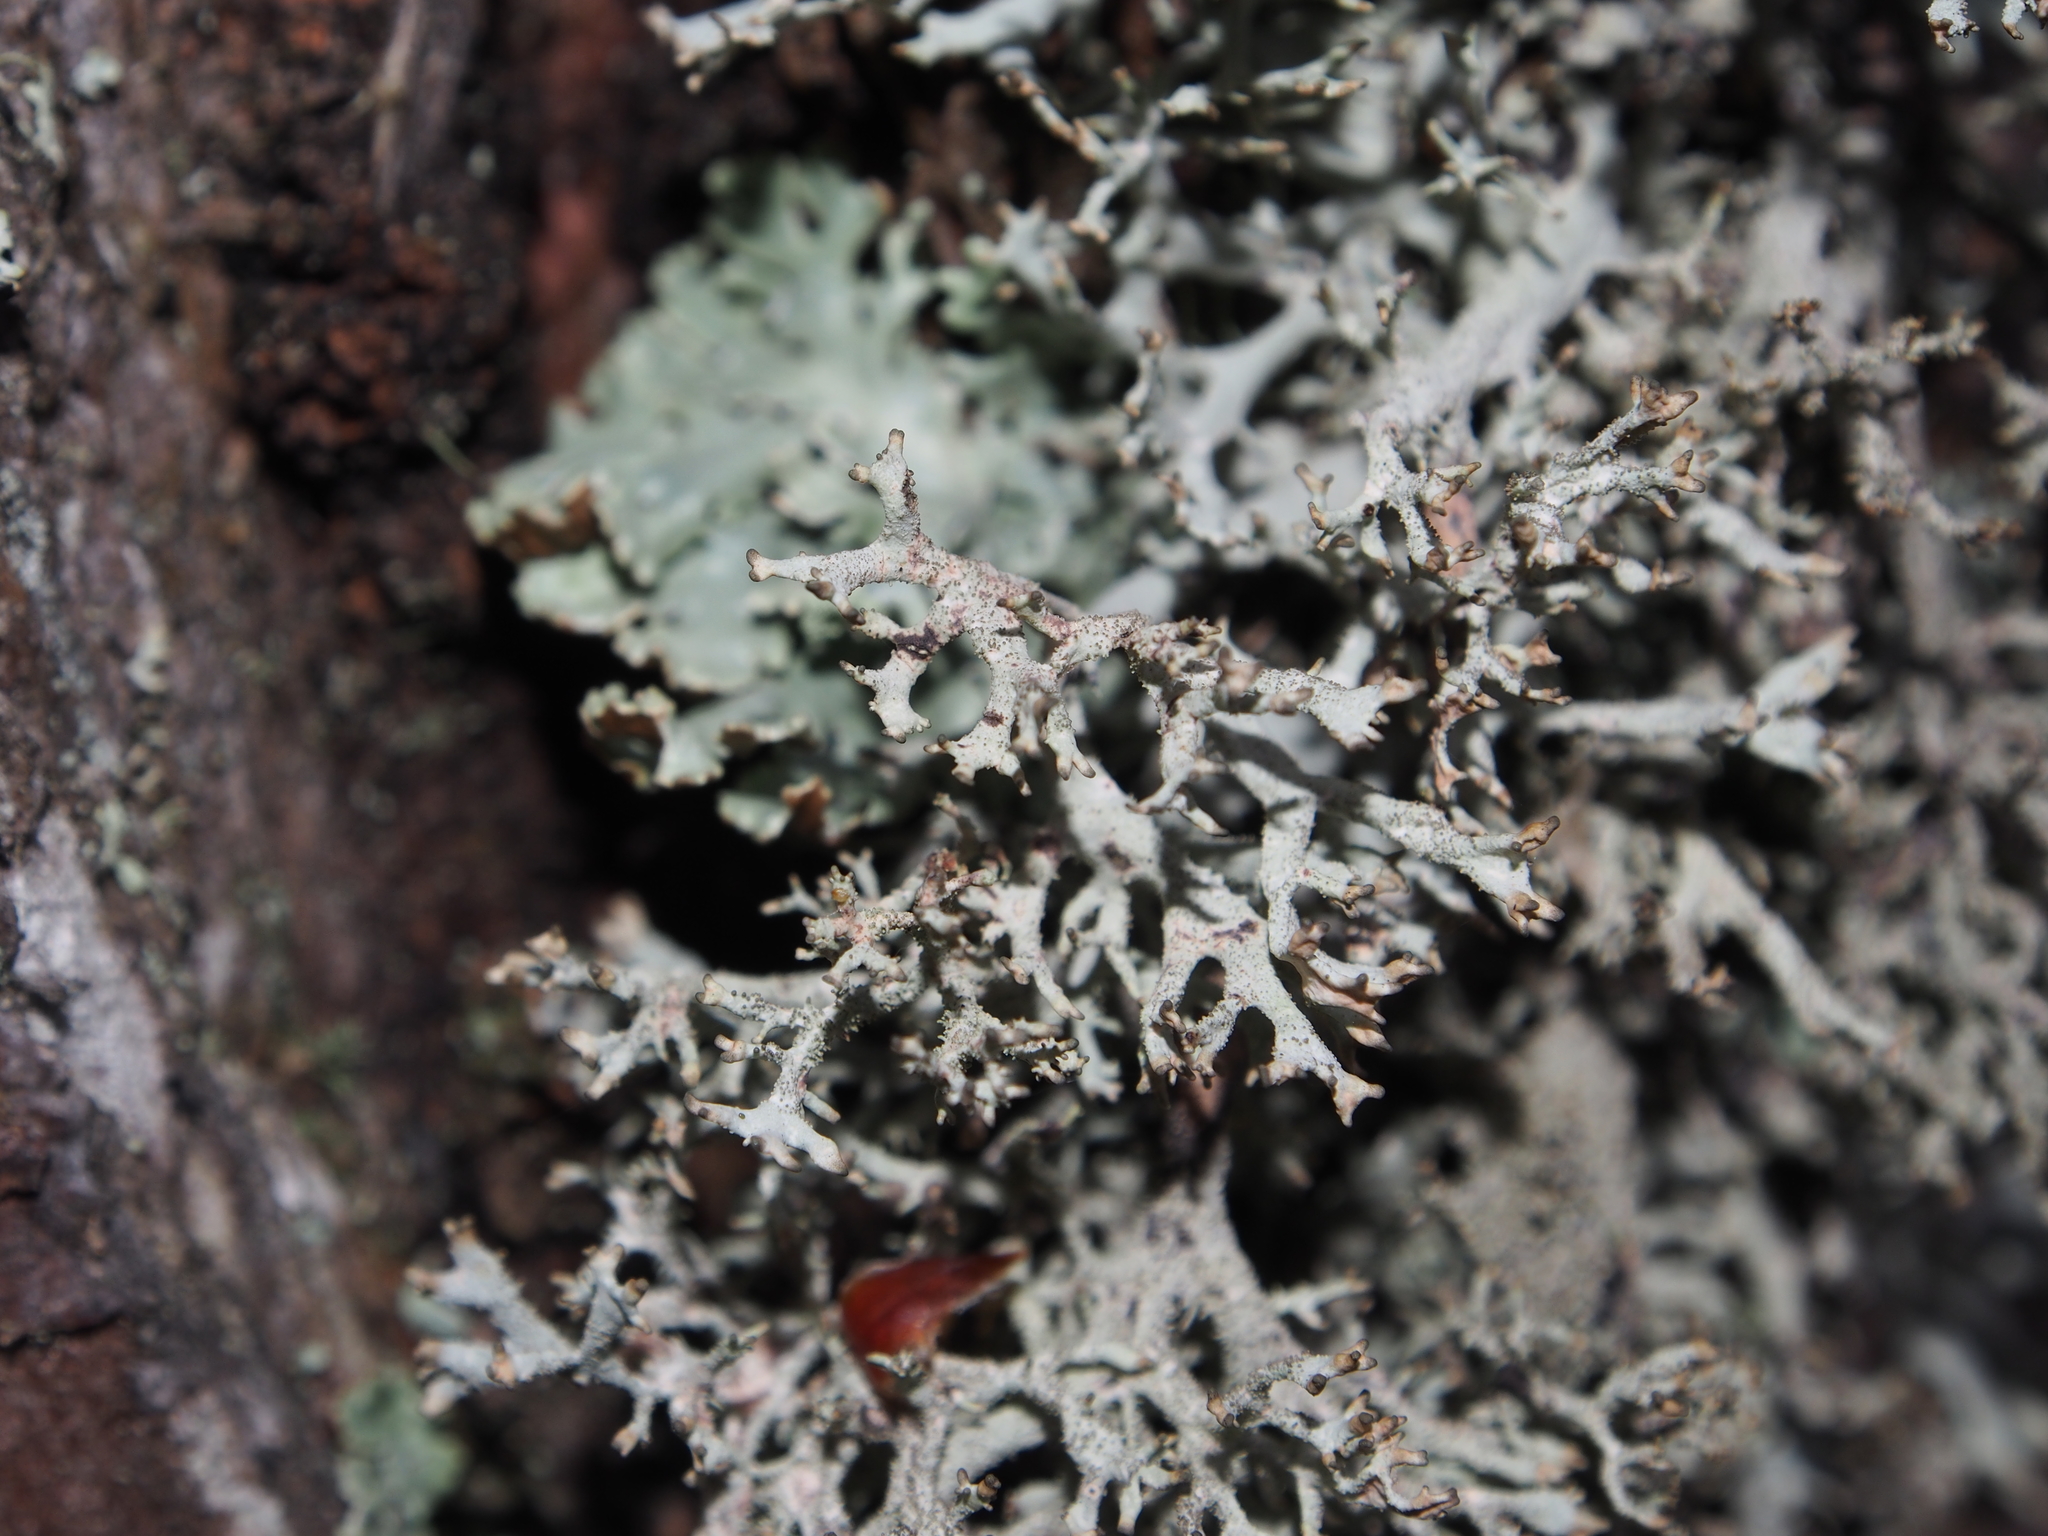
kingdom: Fungi
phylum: Ascomycota
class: Lecanoromycetes
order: Lecanorales
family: Parmeliaceae
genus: Pseudevernia
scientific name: Pseudevernia furfuracea
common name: Tree moss
